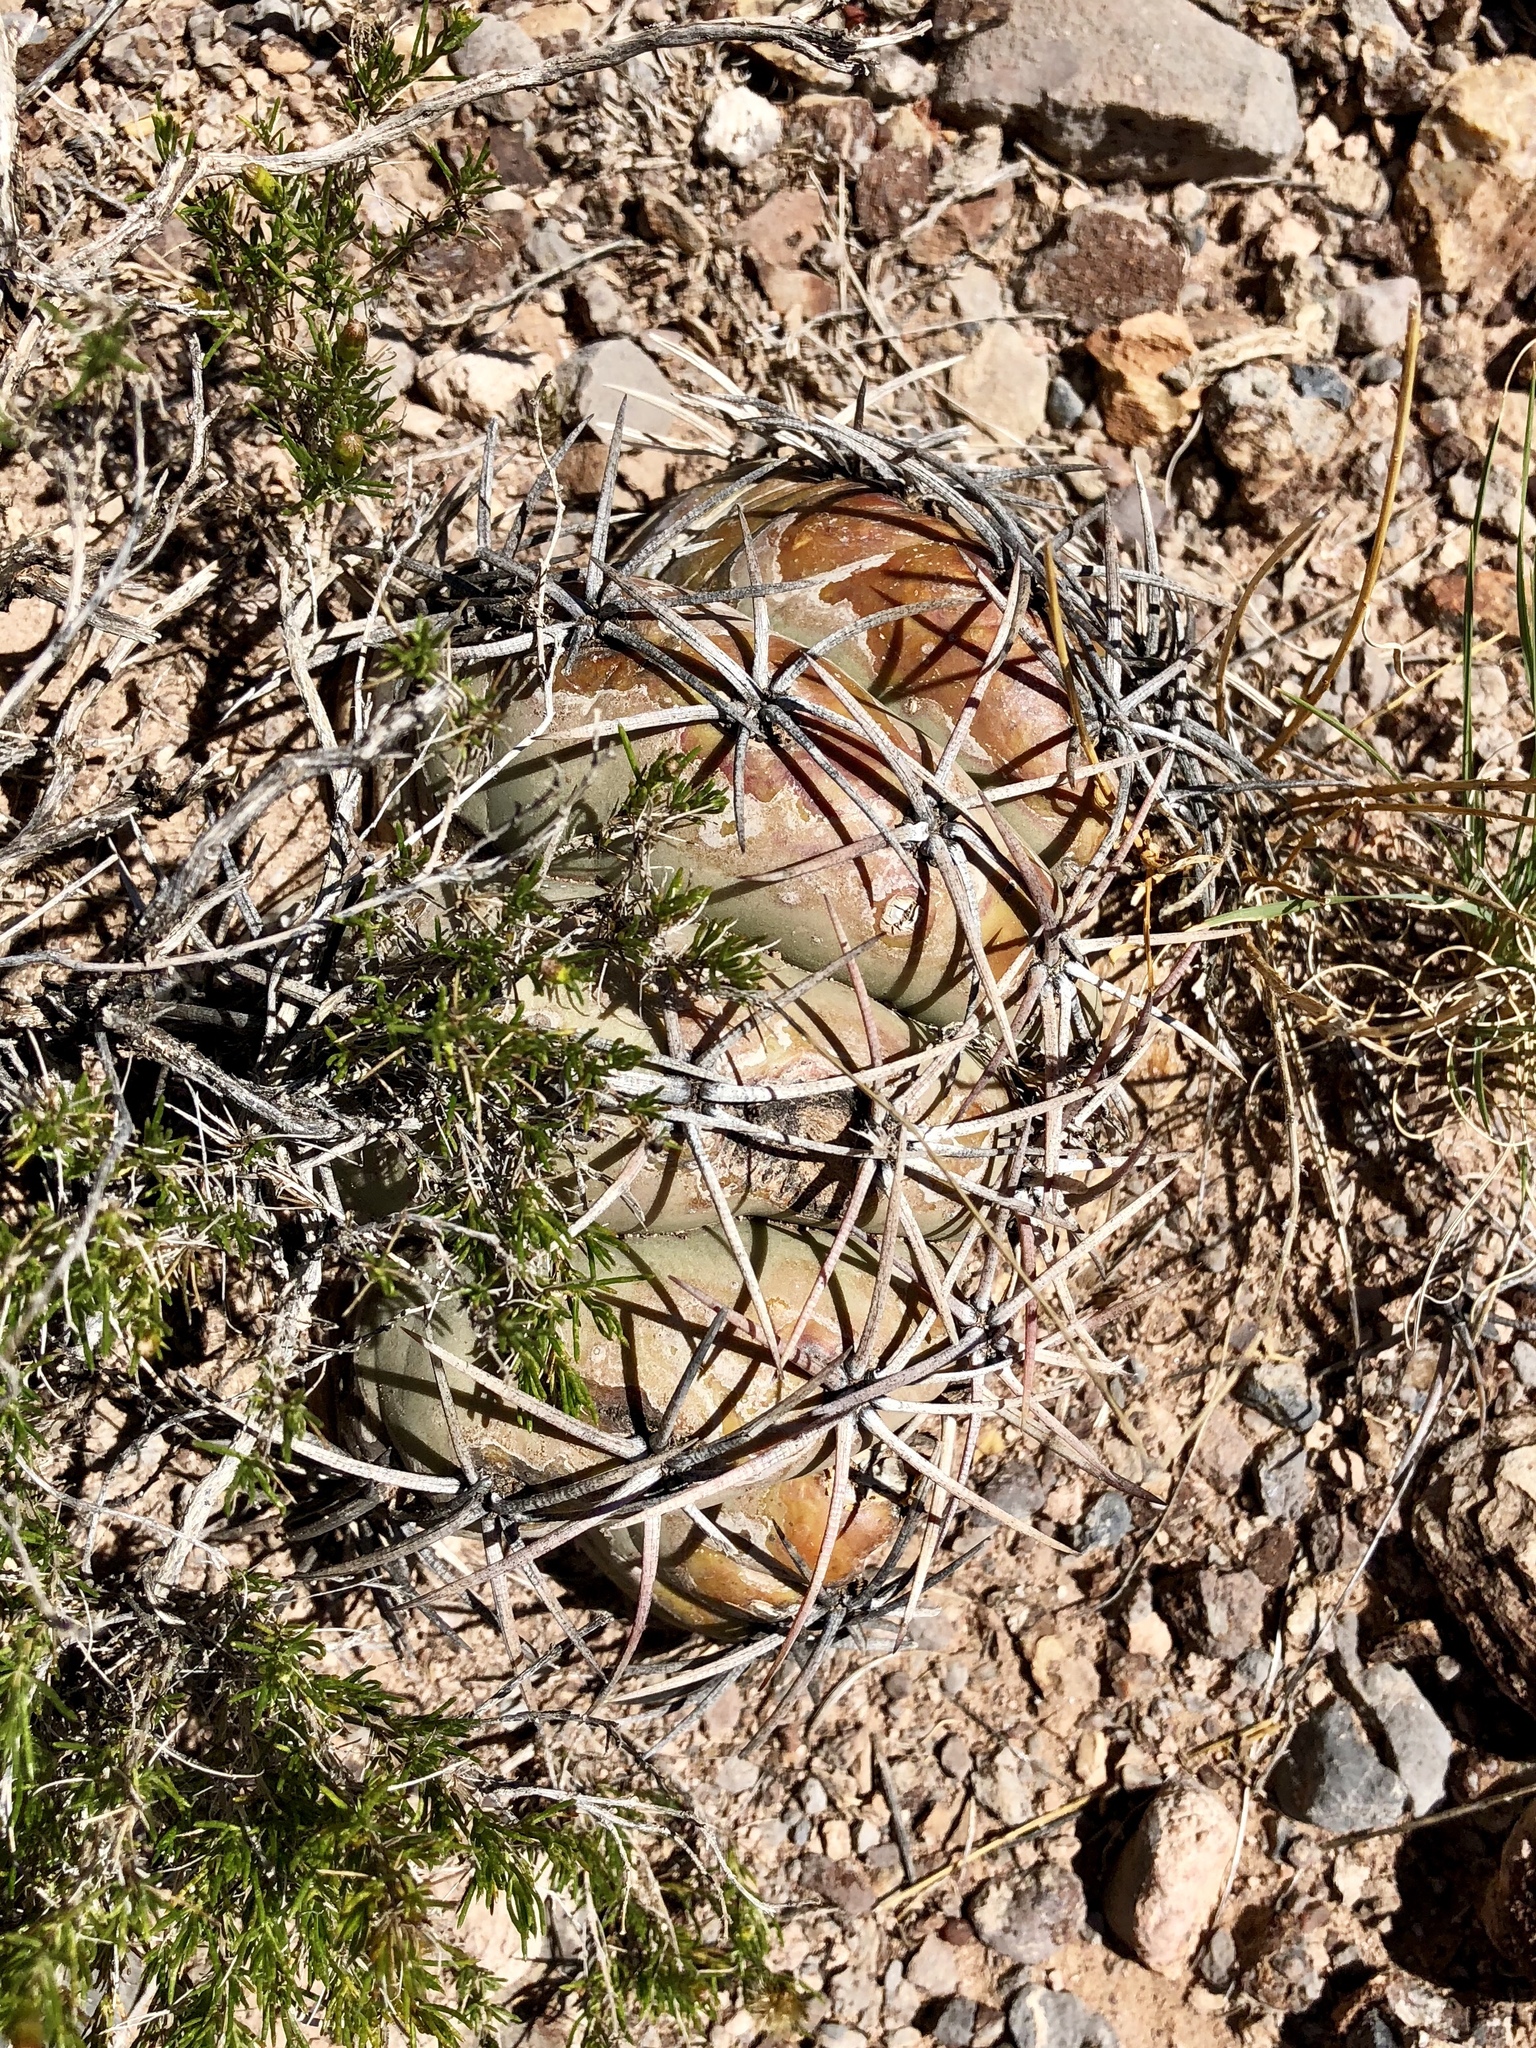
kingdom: Plantae
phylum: Tracheophyta
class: Magnoliopsida
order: Caryophyllales
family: Cactaceae
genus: Echinocactus
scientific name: Echinocactus horizonthalonius
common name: Devilshead
